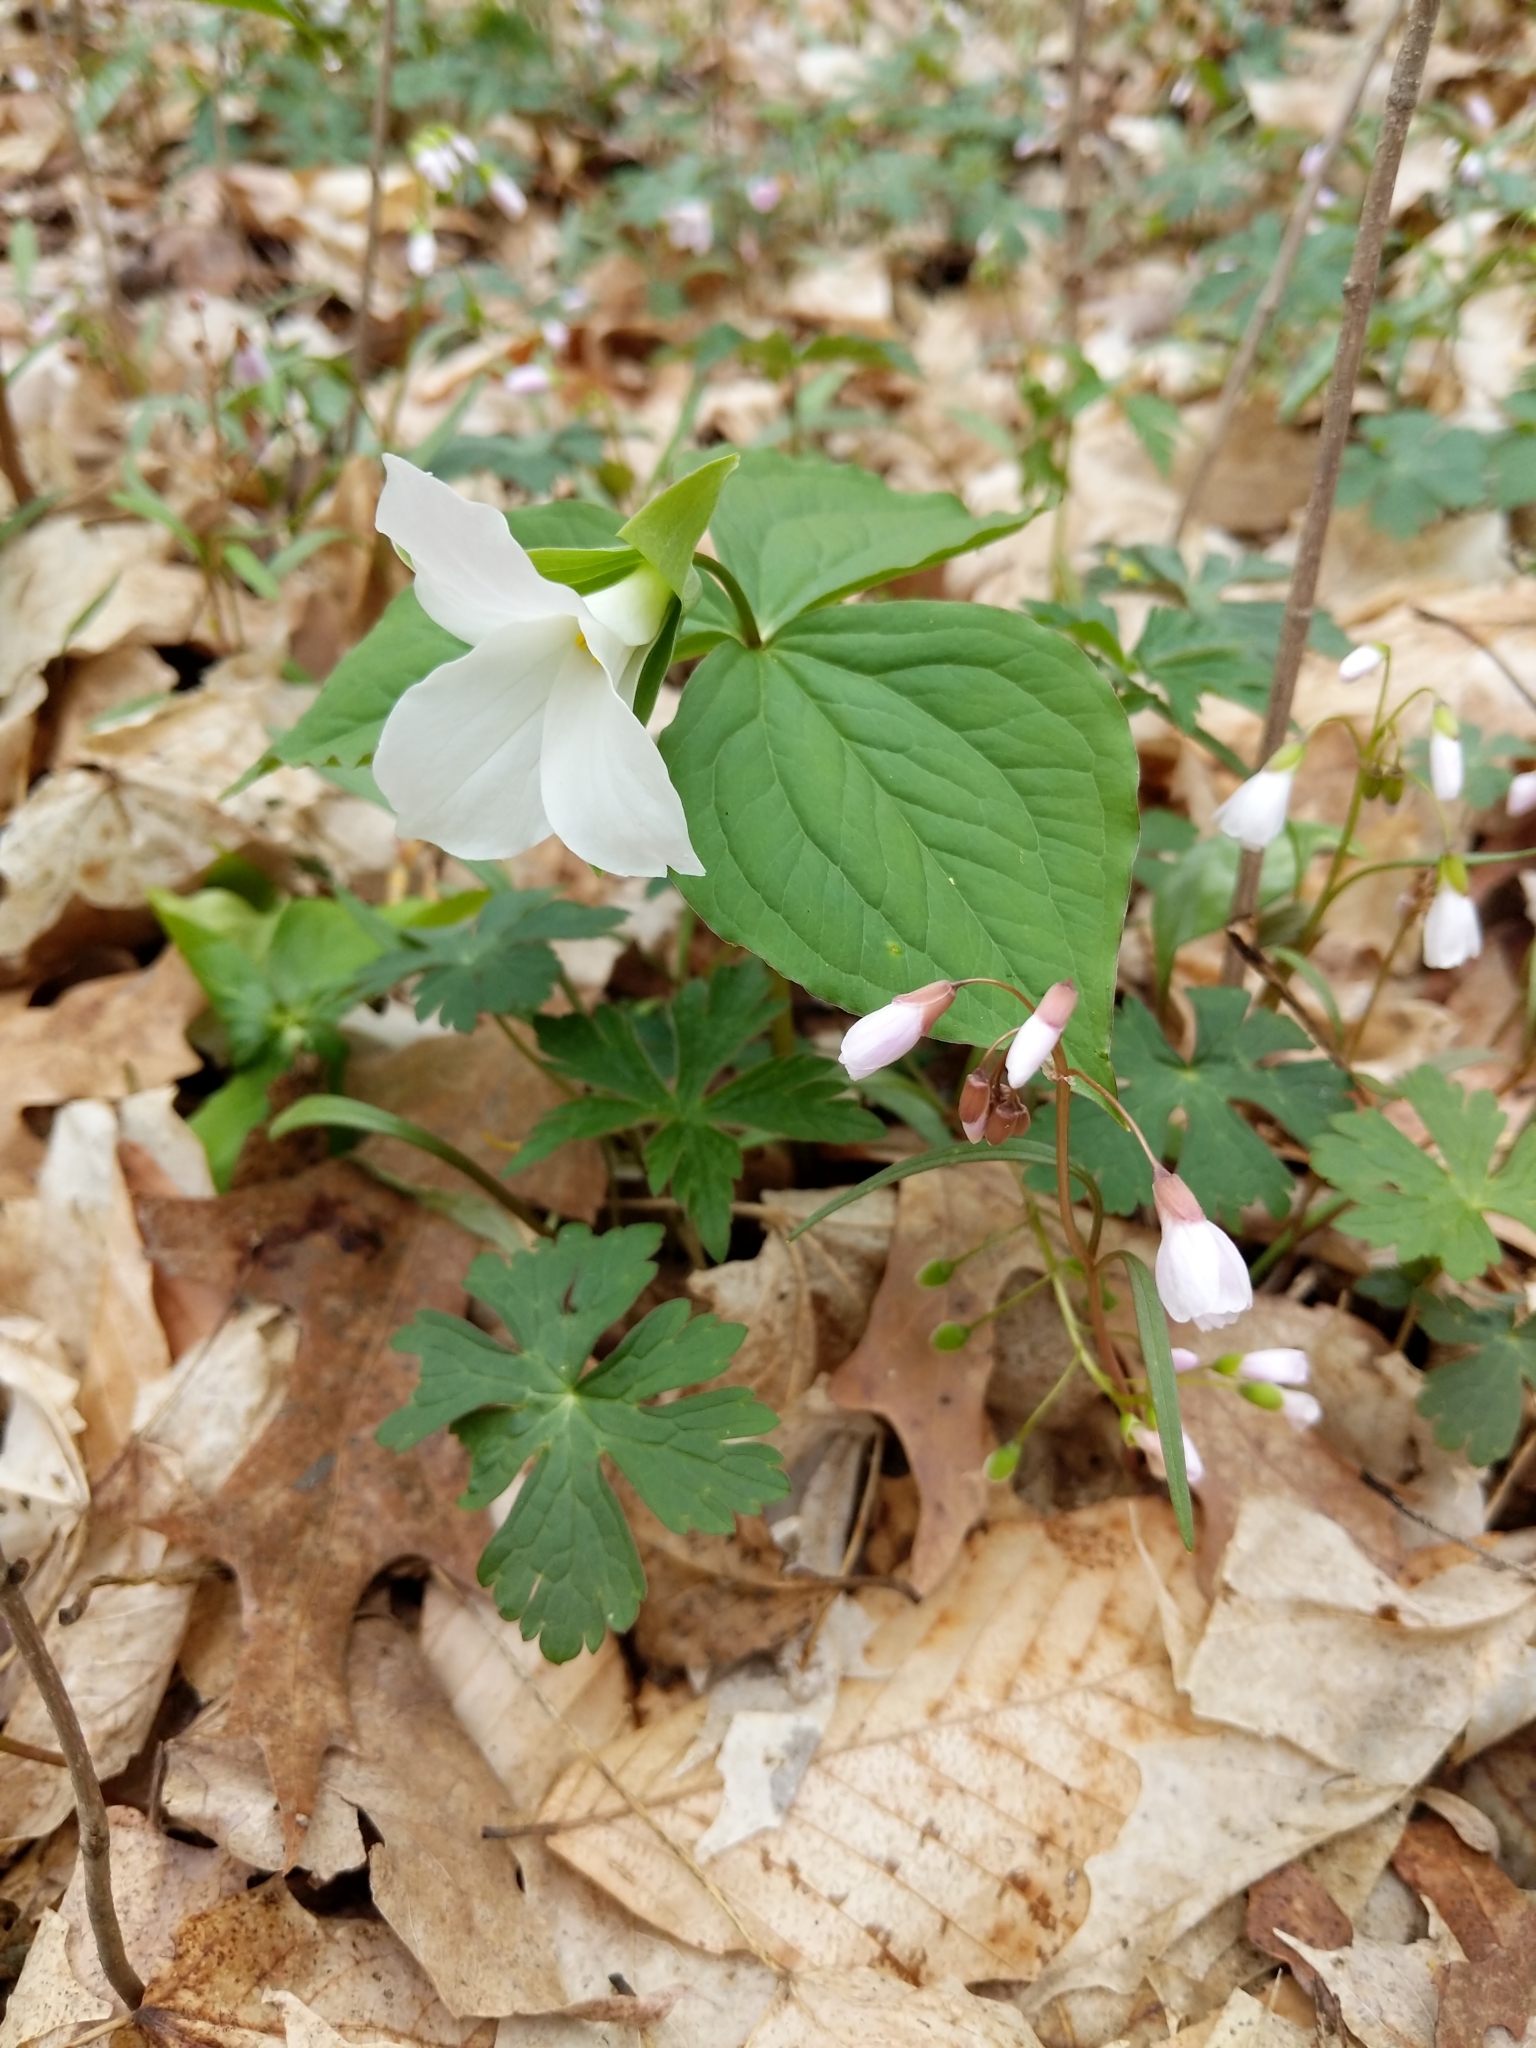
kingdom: Plantae
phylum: Tracheophyta
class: Liliopsida
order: Liliales
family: Melanthiaceae
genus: Trillium
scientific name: Trillium grandiflorum
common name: Great white trillium
